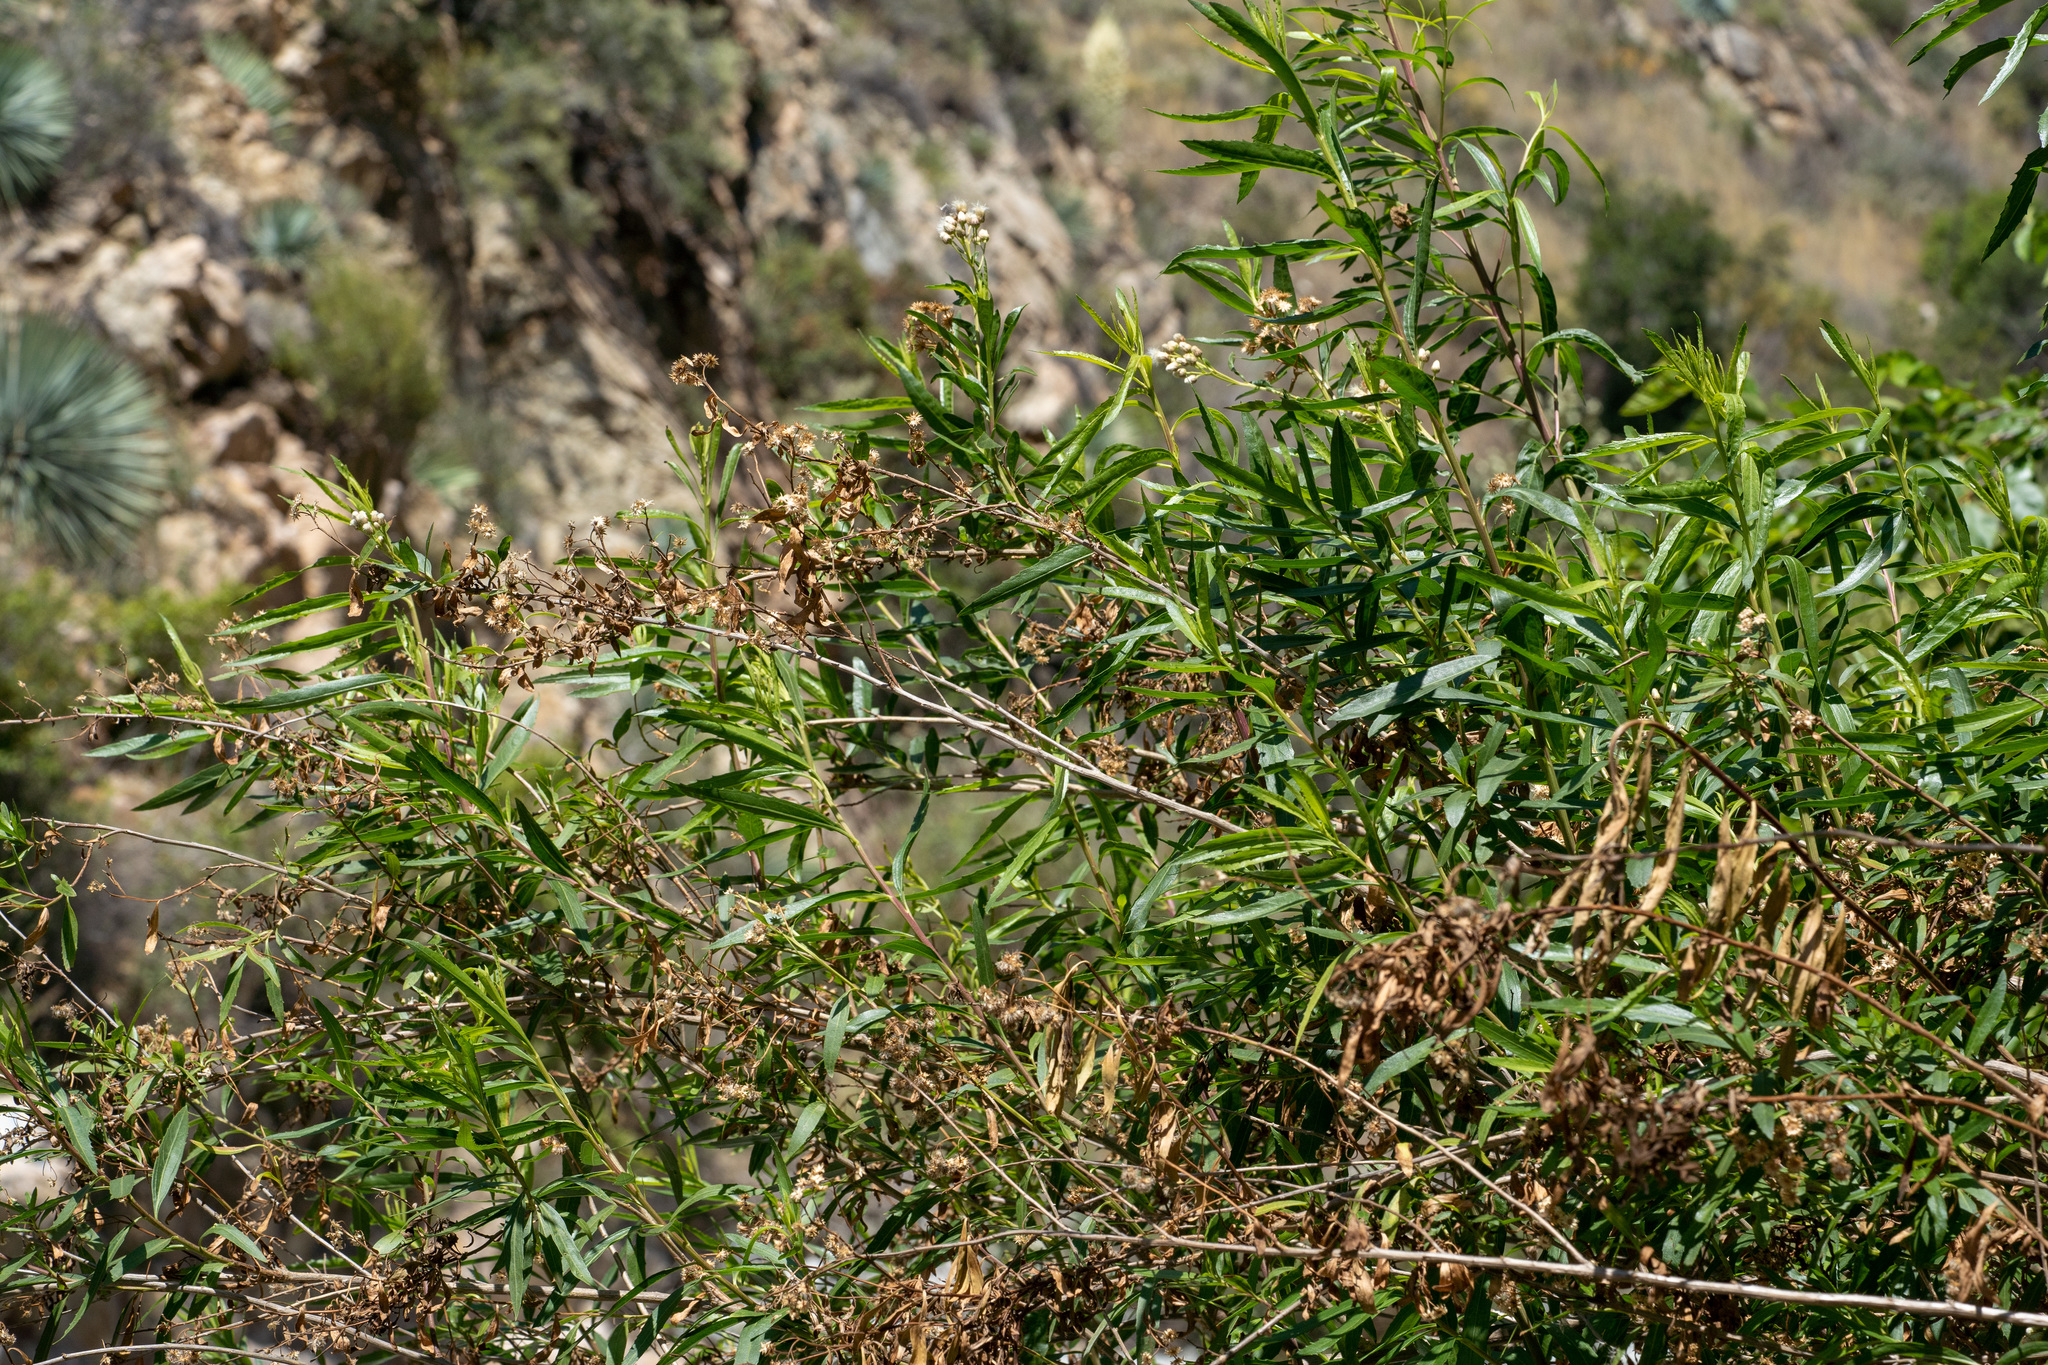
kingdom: Plantae
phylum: Tracheophyta
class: Magnoliopsida
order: Asterales
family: Asteraceae
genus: Baccharis
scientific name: Baccharis salicifolia
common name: Sticky baccharis
